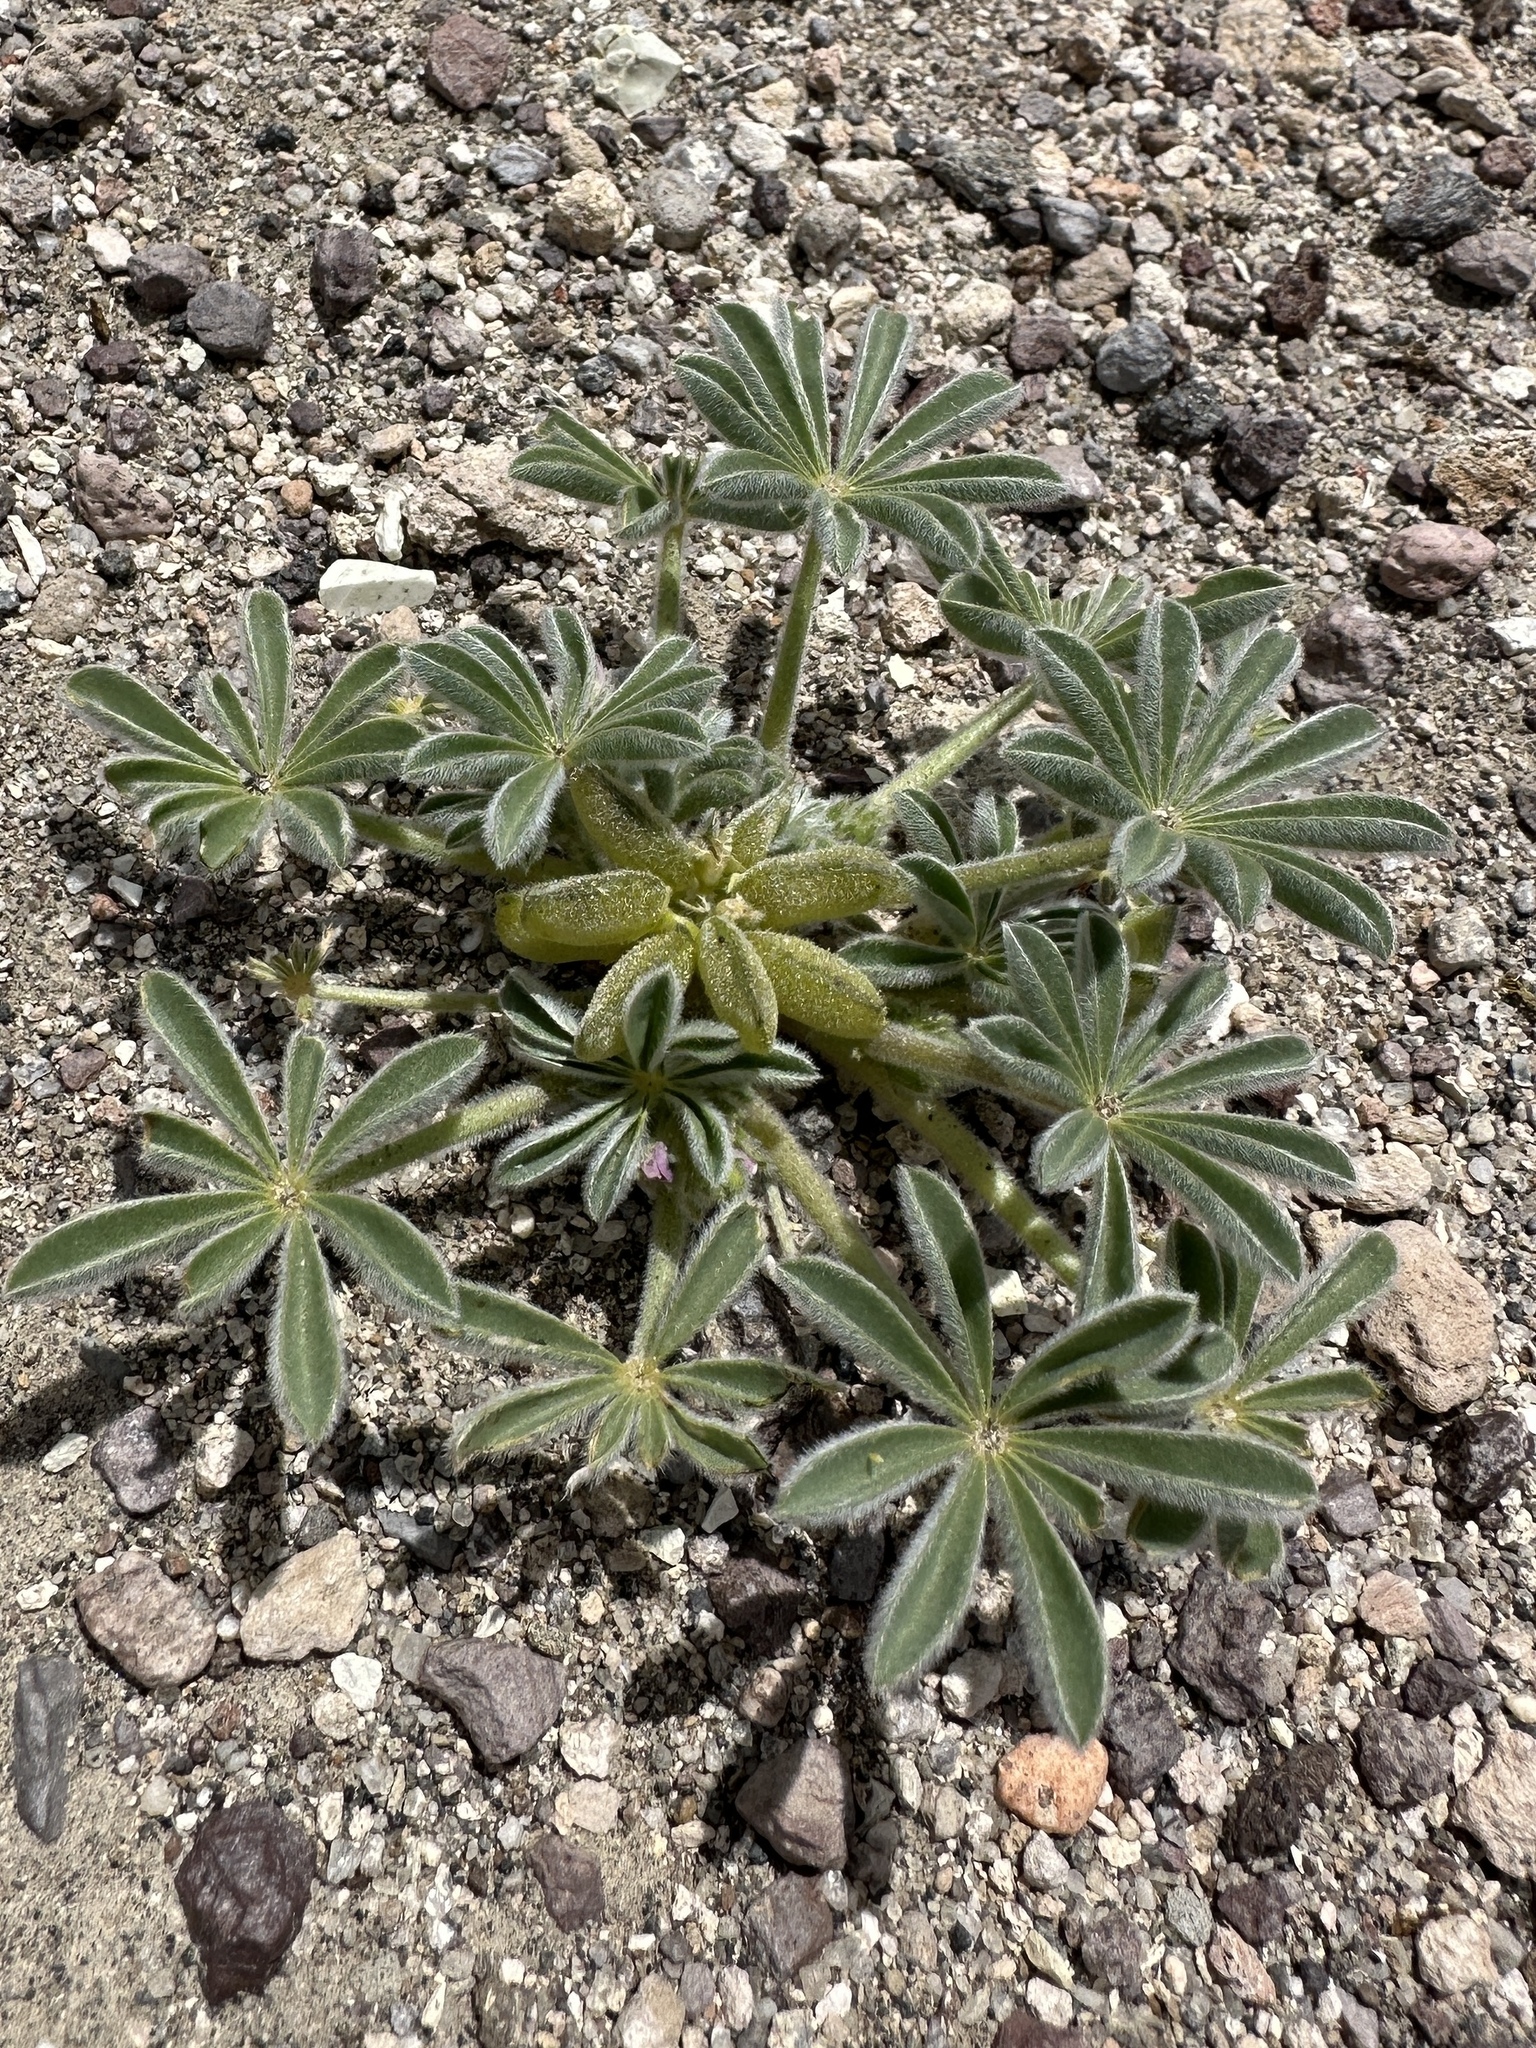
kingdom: Plantae
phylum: Tracheophyta
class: Magnoliopsida
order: Fabales
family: Fabaceae
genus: Lupinus
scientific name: Lupinus shockleyi
